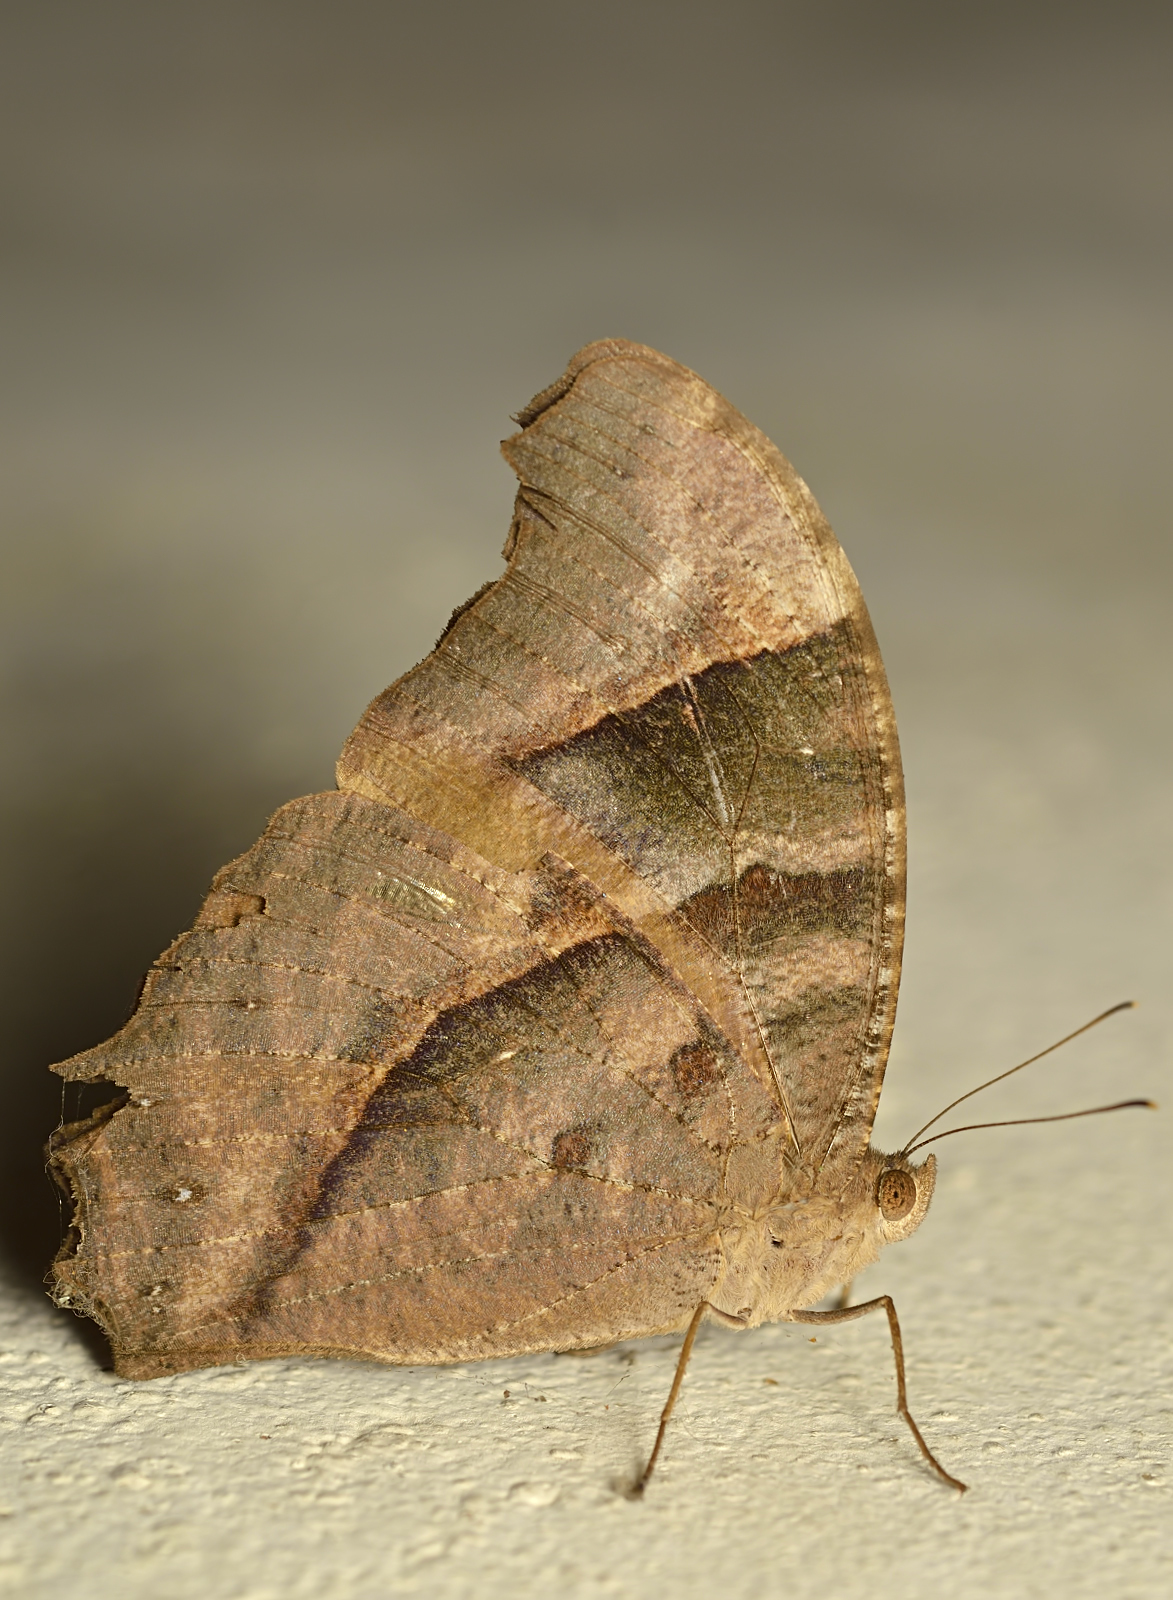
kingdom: Animalia
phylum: Arthropoda
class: Insecta
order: Lepidoptera
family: Nymphalidae
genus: Melanitis
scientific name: Melanitis leda
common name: Twilight brown
